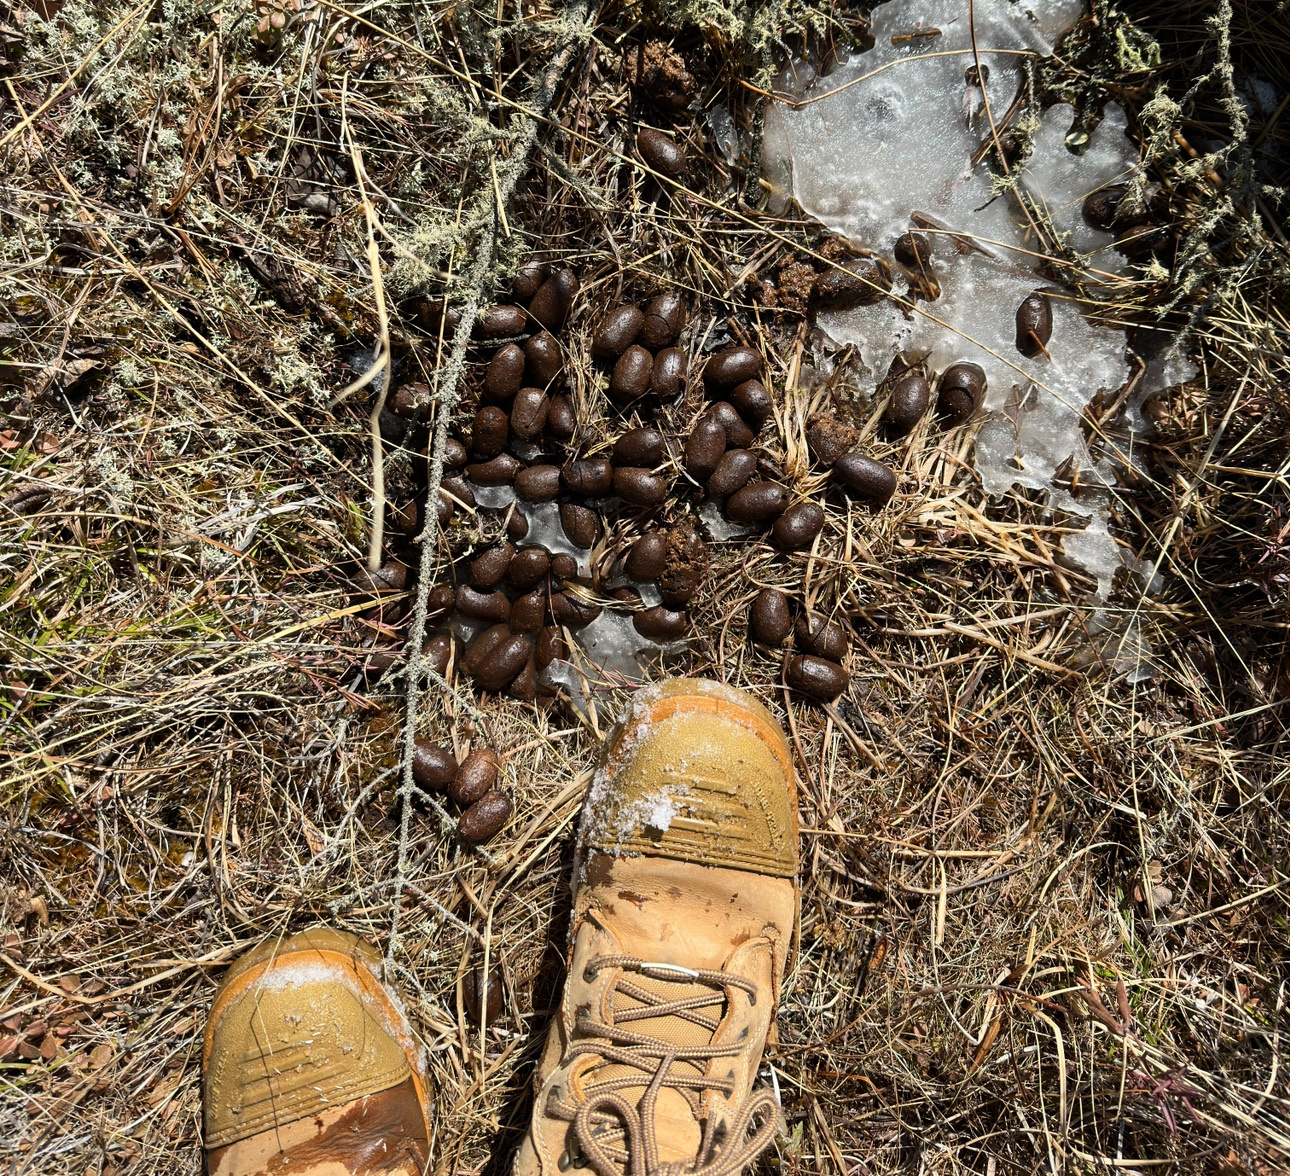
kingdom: Animalia
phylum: Chordata
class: Mammalia
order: Artiodactyla
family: Cervidae
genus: Alces
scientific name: Alces alces
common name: Moose
